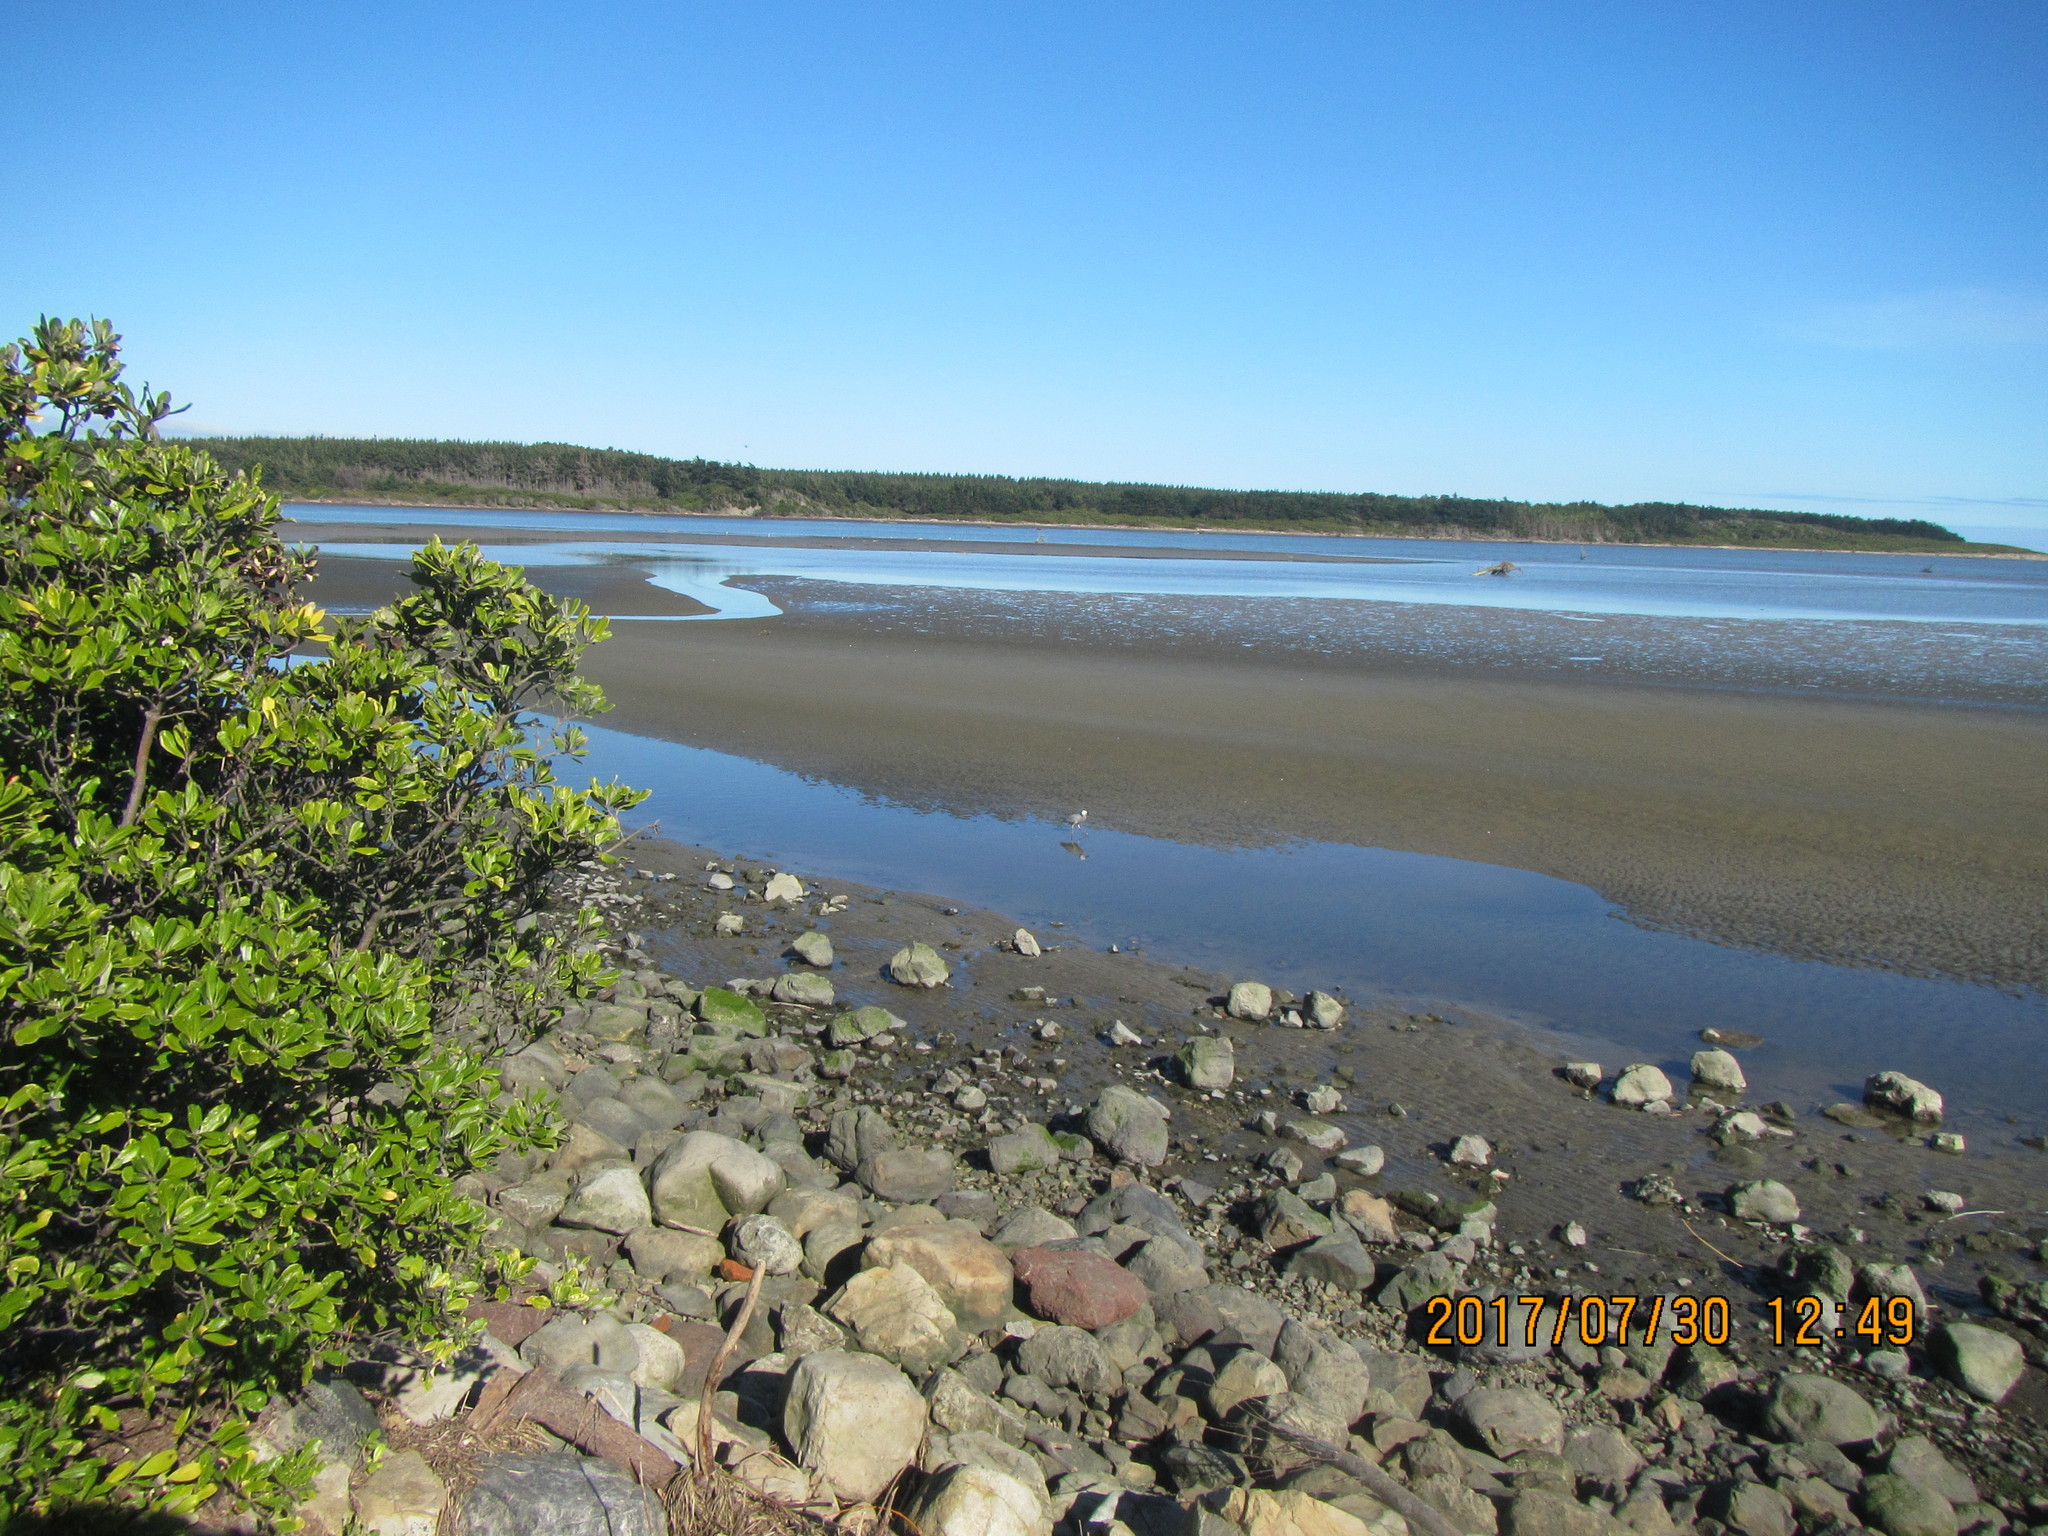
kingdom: Animalia
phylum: Chordata
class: Aves
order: Pelecaniformes
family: Ardeidae
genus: Egretta
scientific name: Egretta novaehollandiae
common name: White-faced heron
